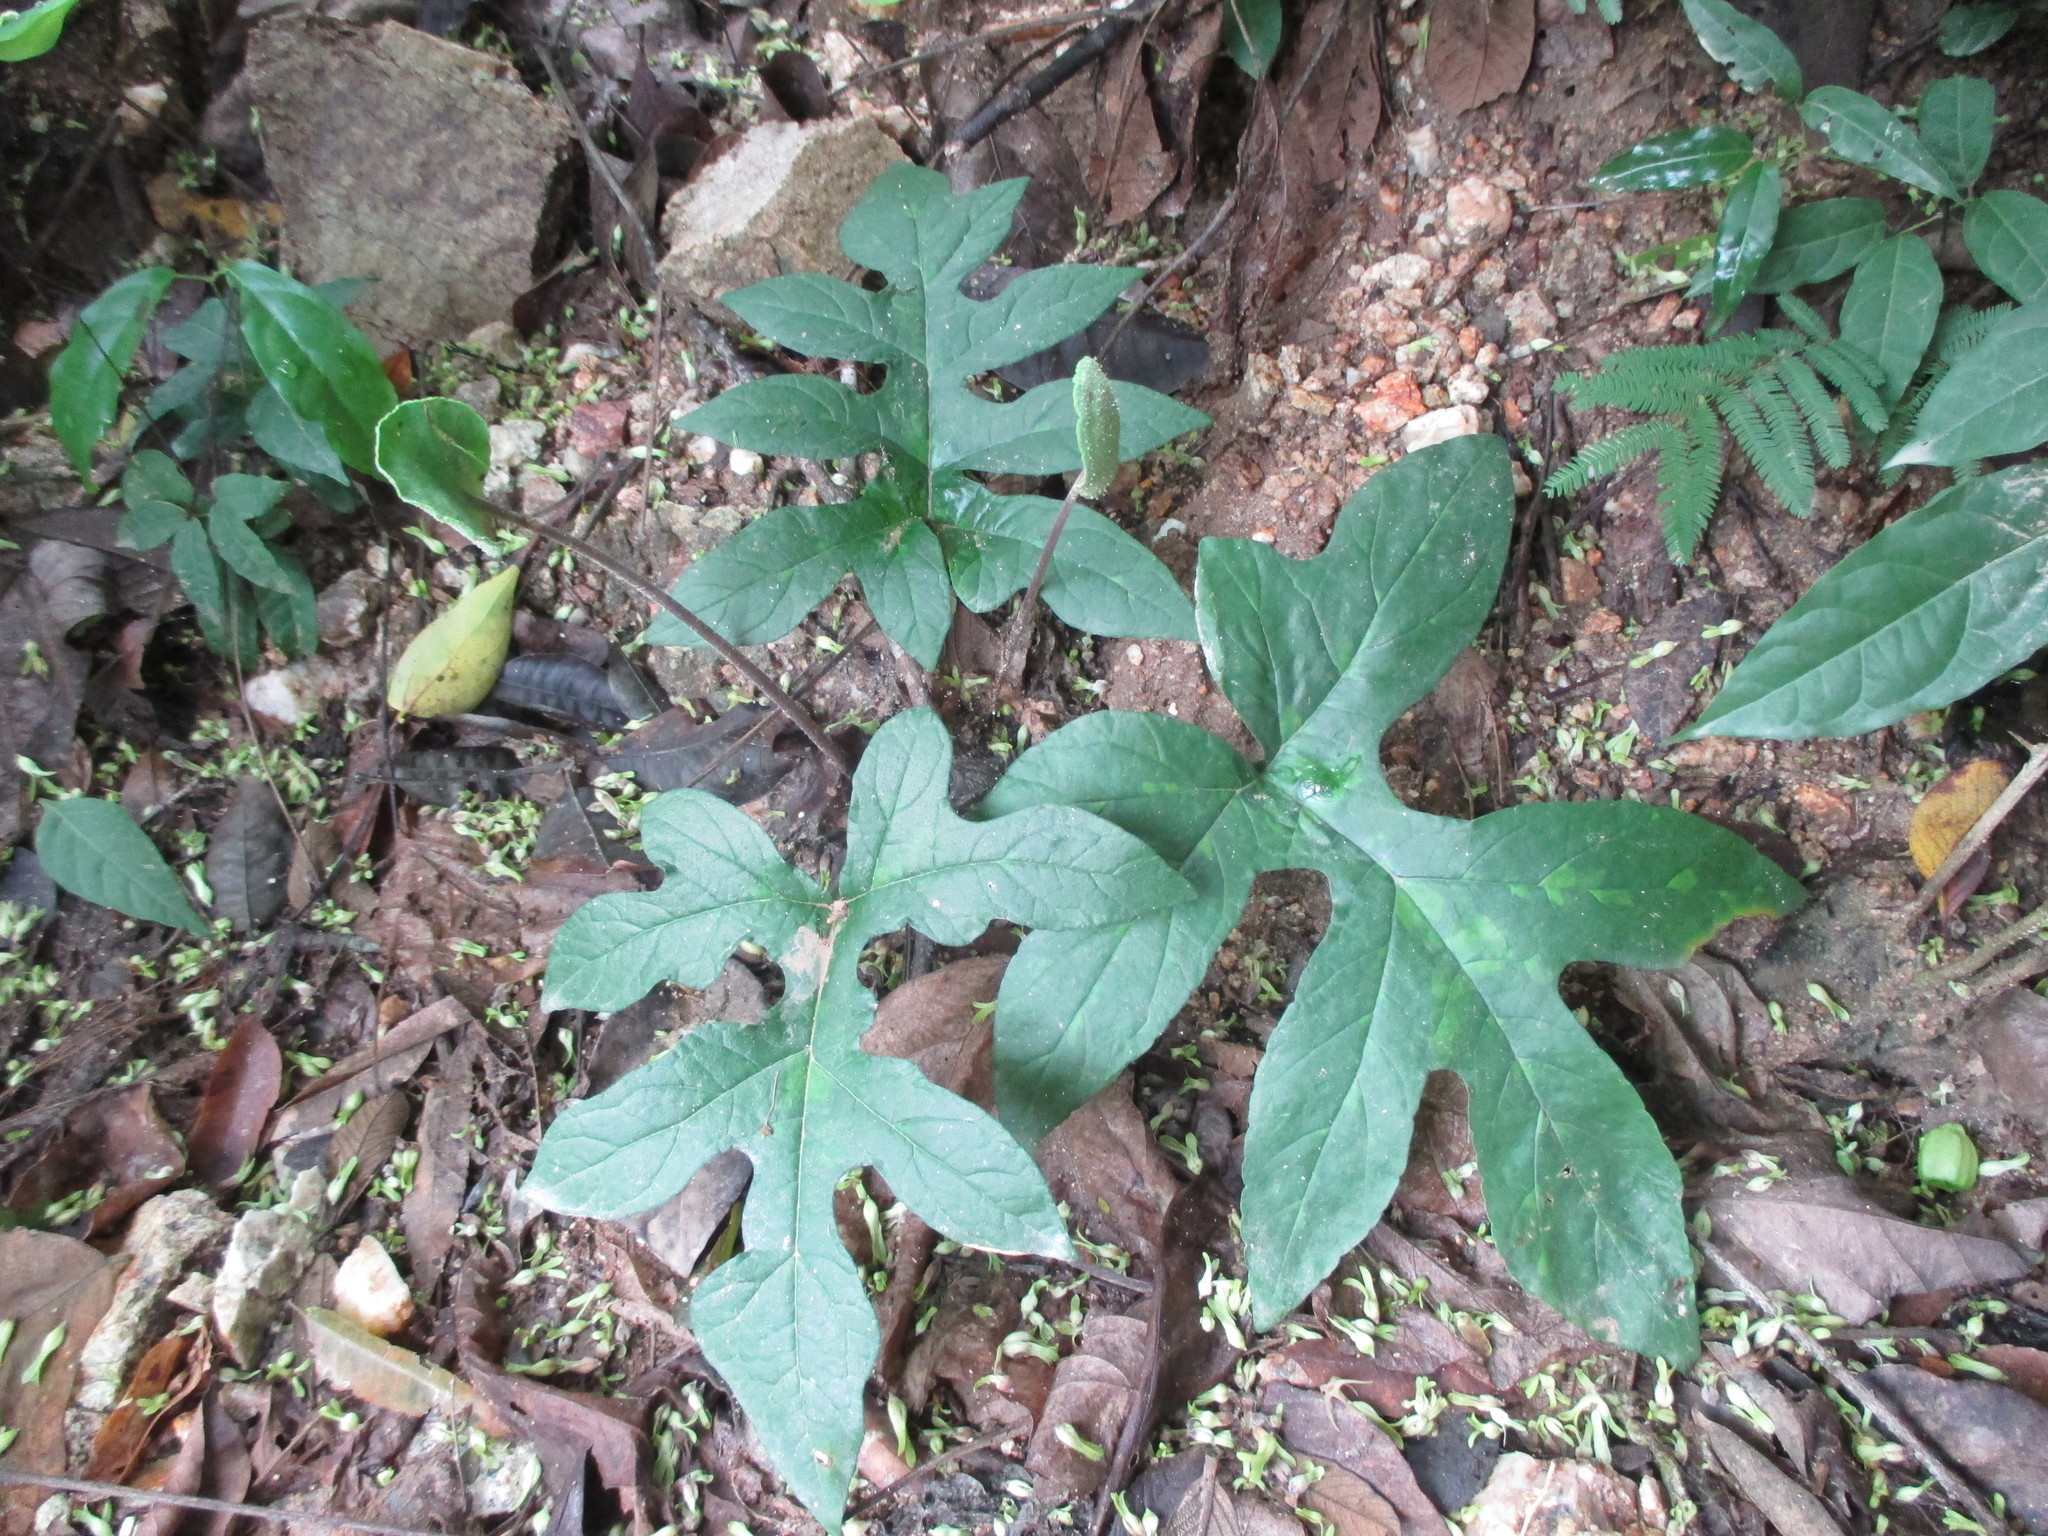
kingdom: Plantae
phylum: Tracheophyta
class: Magnoliopsida
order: Rosales
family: Moraceae
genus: Dorstenia
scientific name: Dorstenia contrajerva
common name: Tusilla
